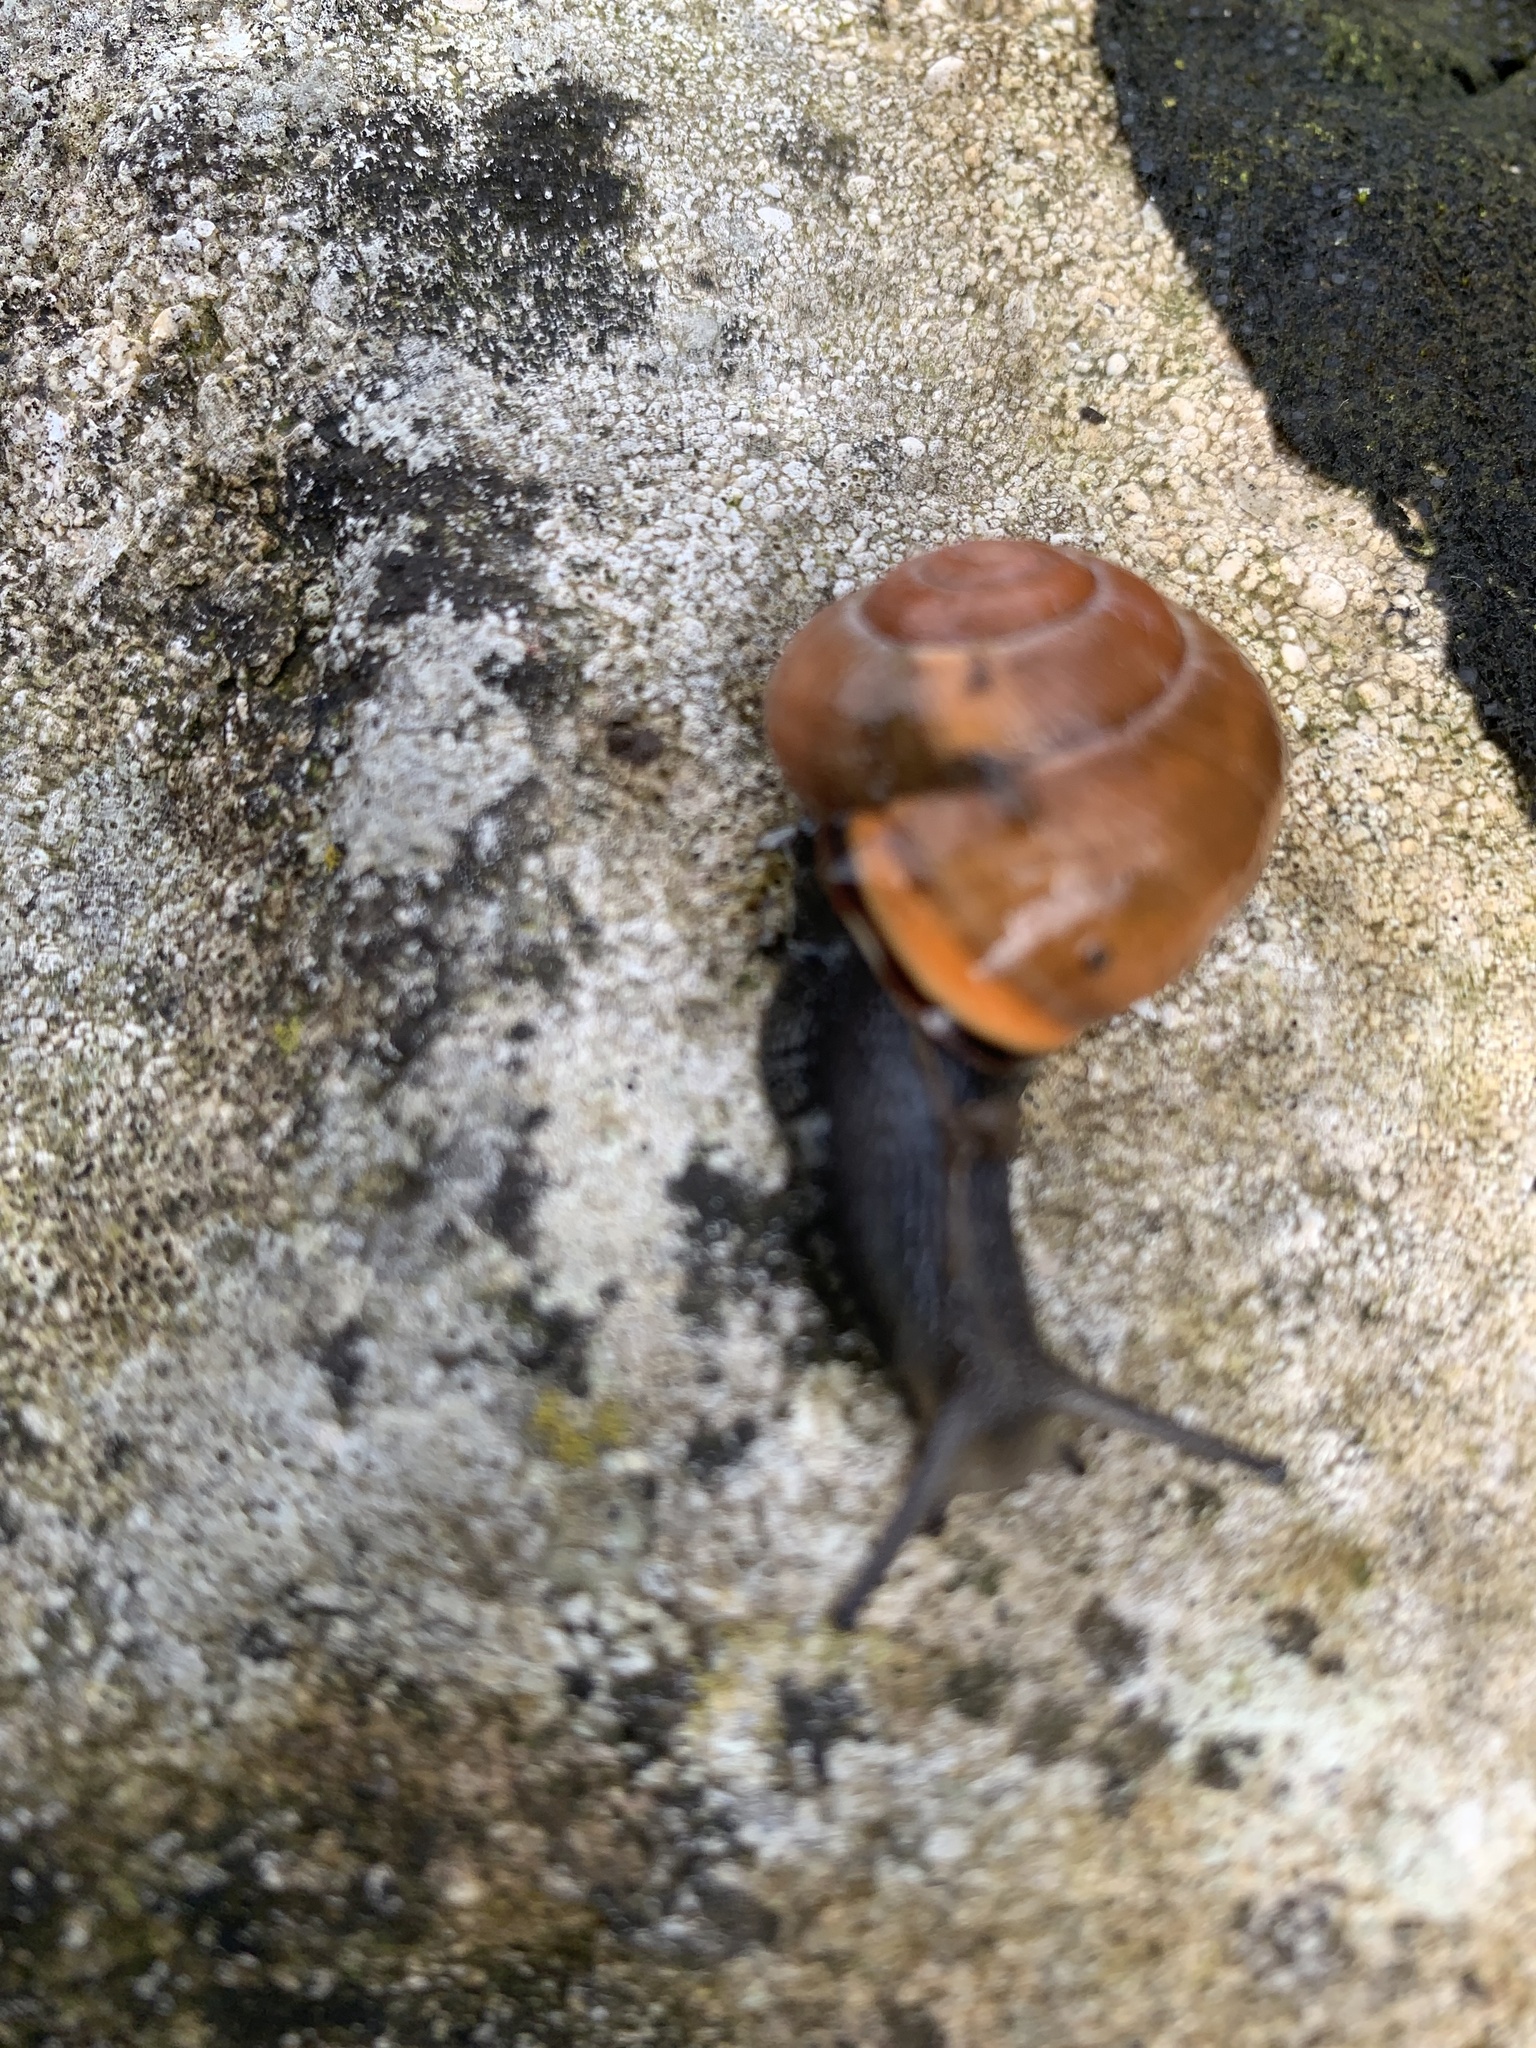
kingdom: Animalia
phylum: Mollusca
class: Gastropoda
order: Stylommatophora
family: Helicidae
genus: Cepaea
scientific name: Cepaea nemoralis
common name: Grovesnail
